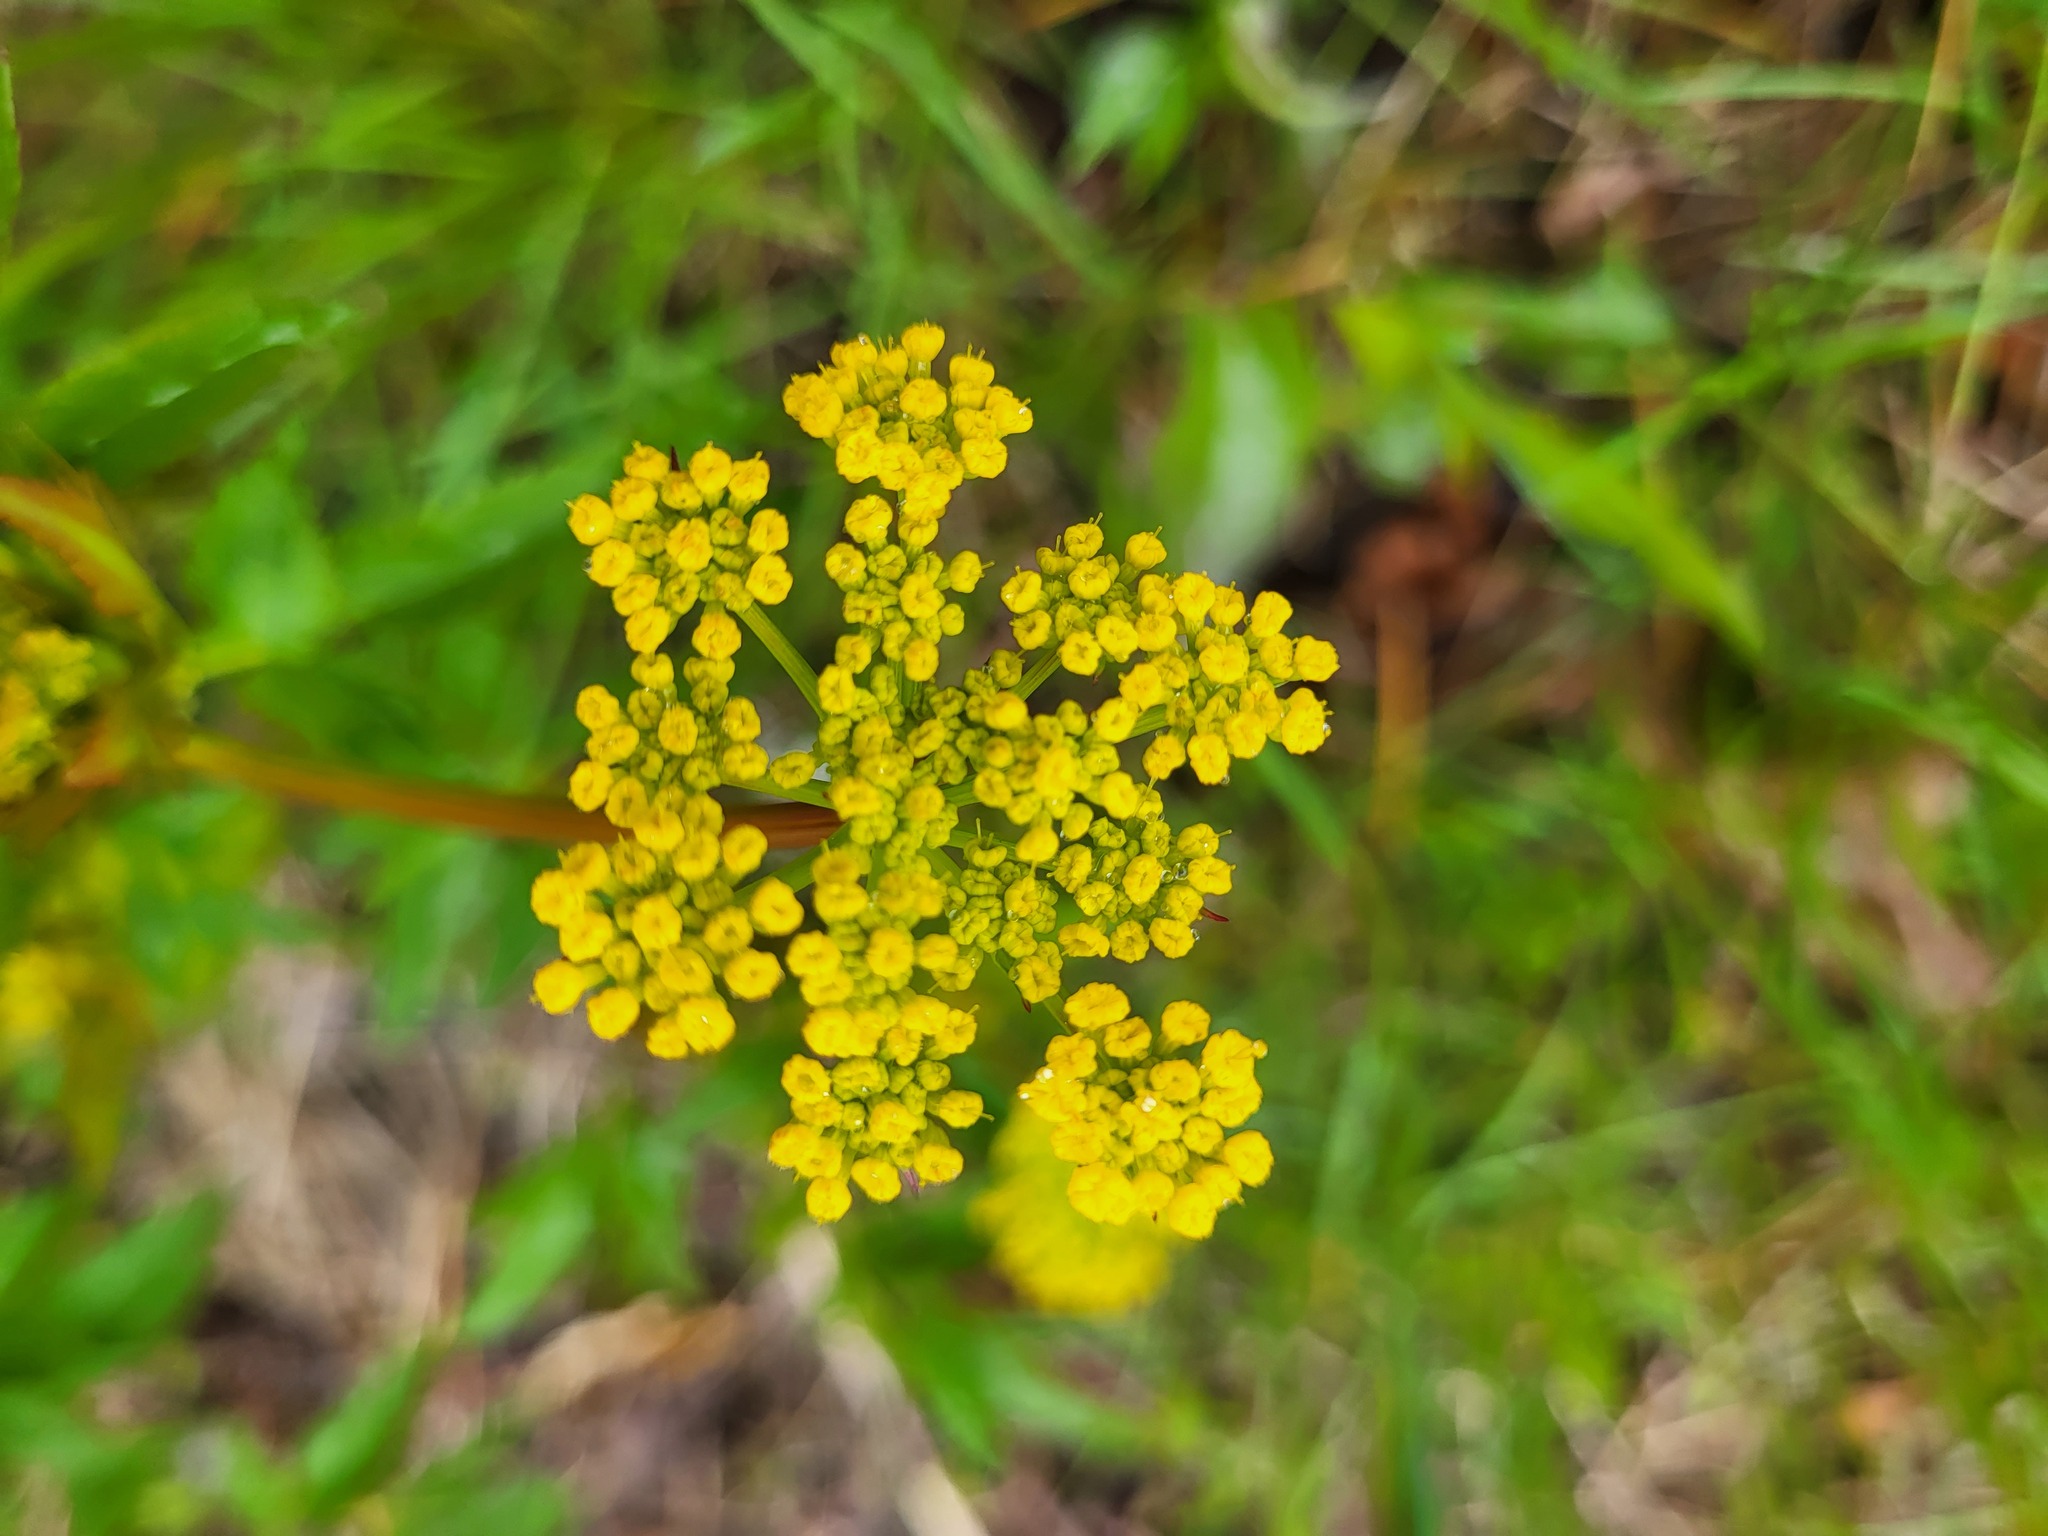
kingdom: Plantae
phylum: Tracheophyta
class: Magnoliopsida
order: Apiales
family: Apiaceae
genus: Zizia
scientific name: Zizia aurea
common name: Golden alexanders
